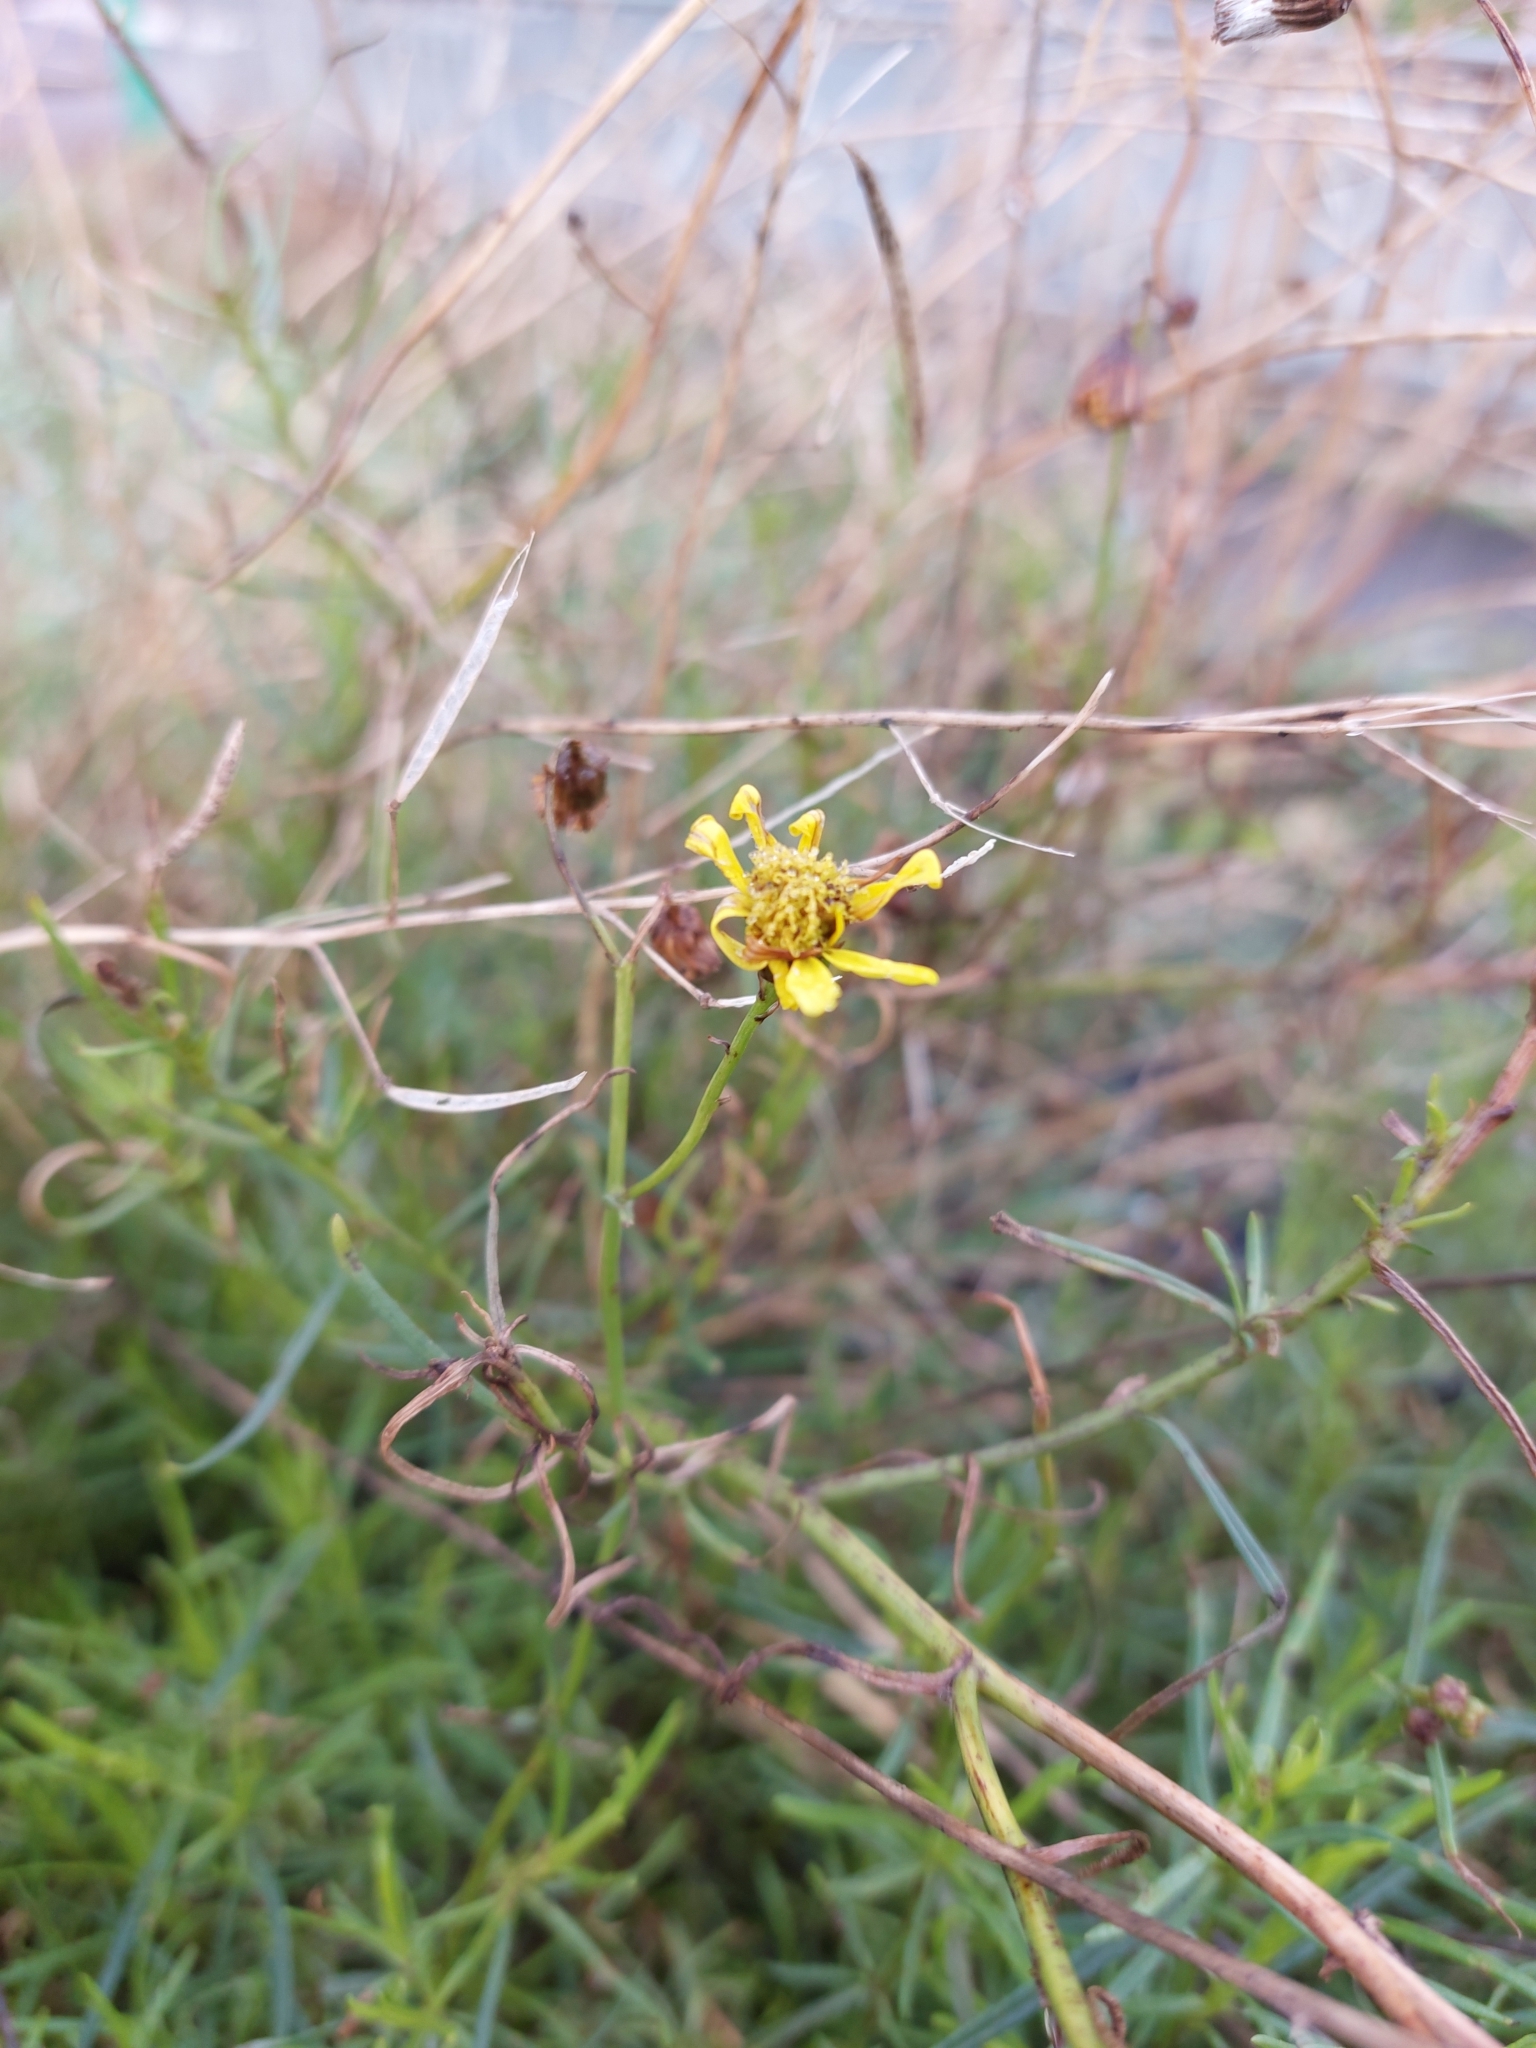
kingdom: Plantae
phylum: Tracheophyta
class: Magnoliopsida
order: Asterales
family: Asteraceae
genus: Senecio
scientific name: Senecio inaequidens
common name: Narrow-leaved ragwort
